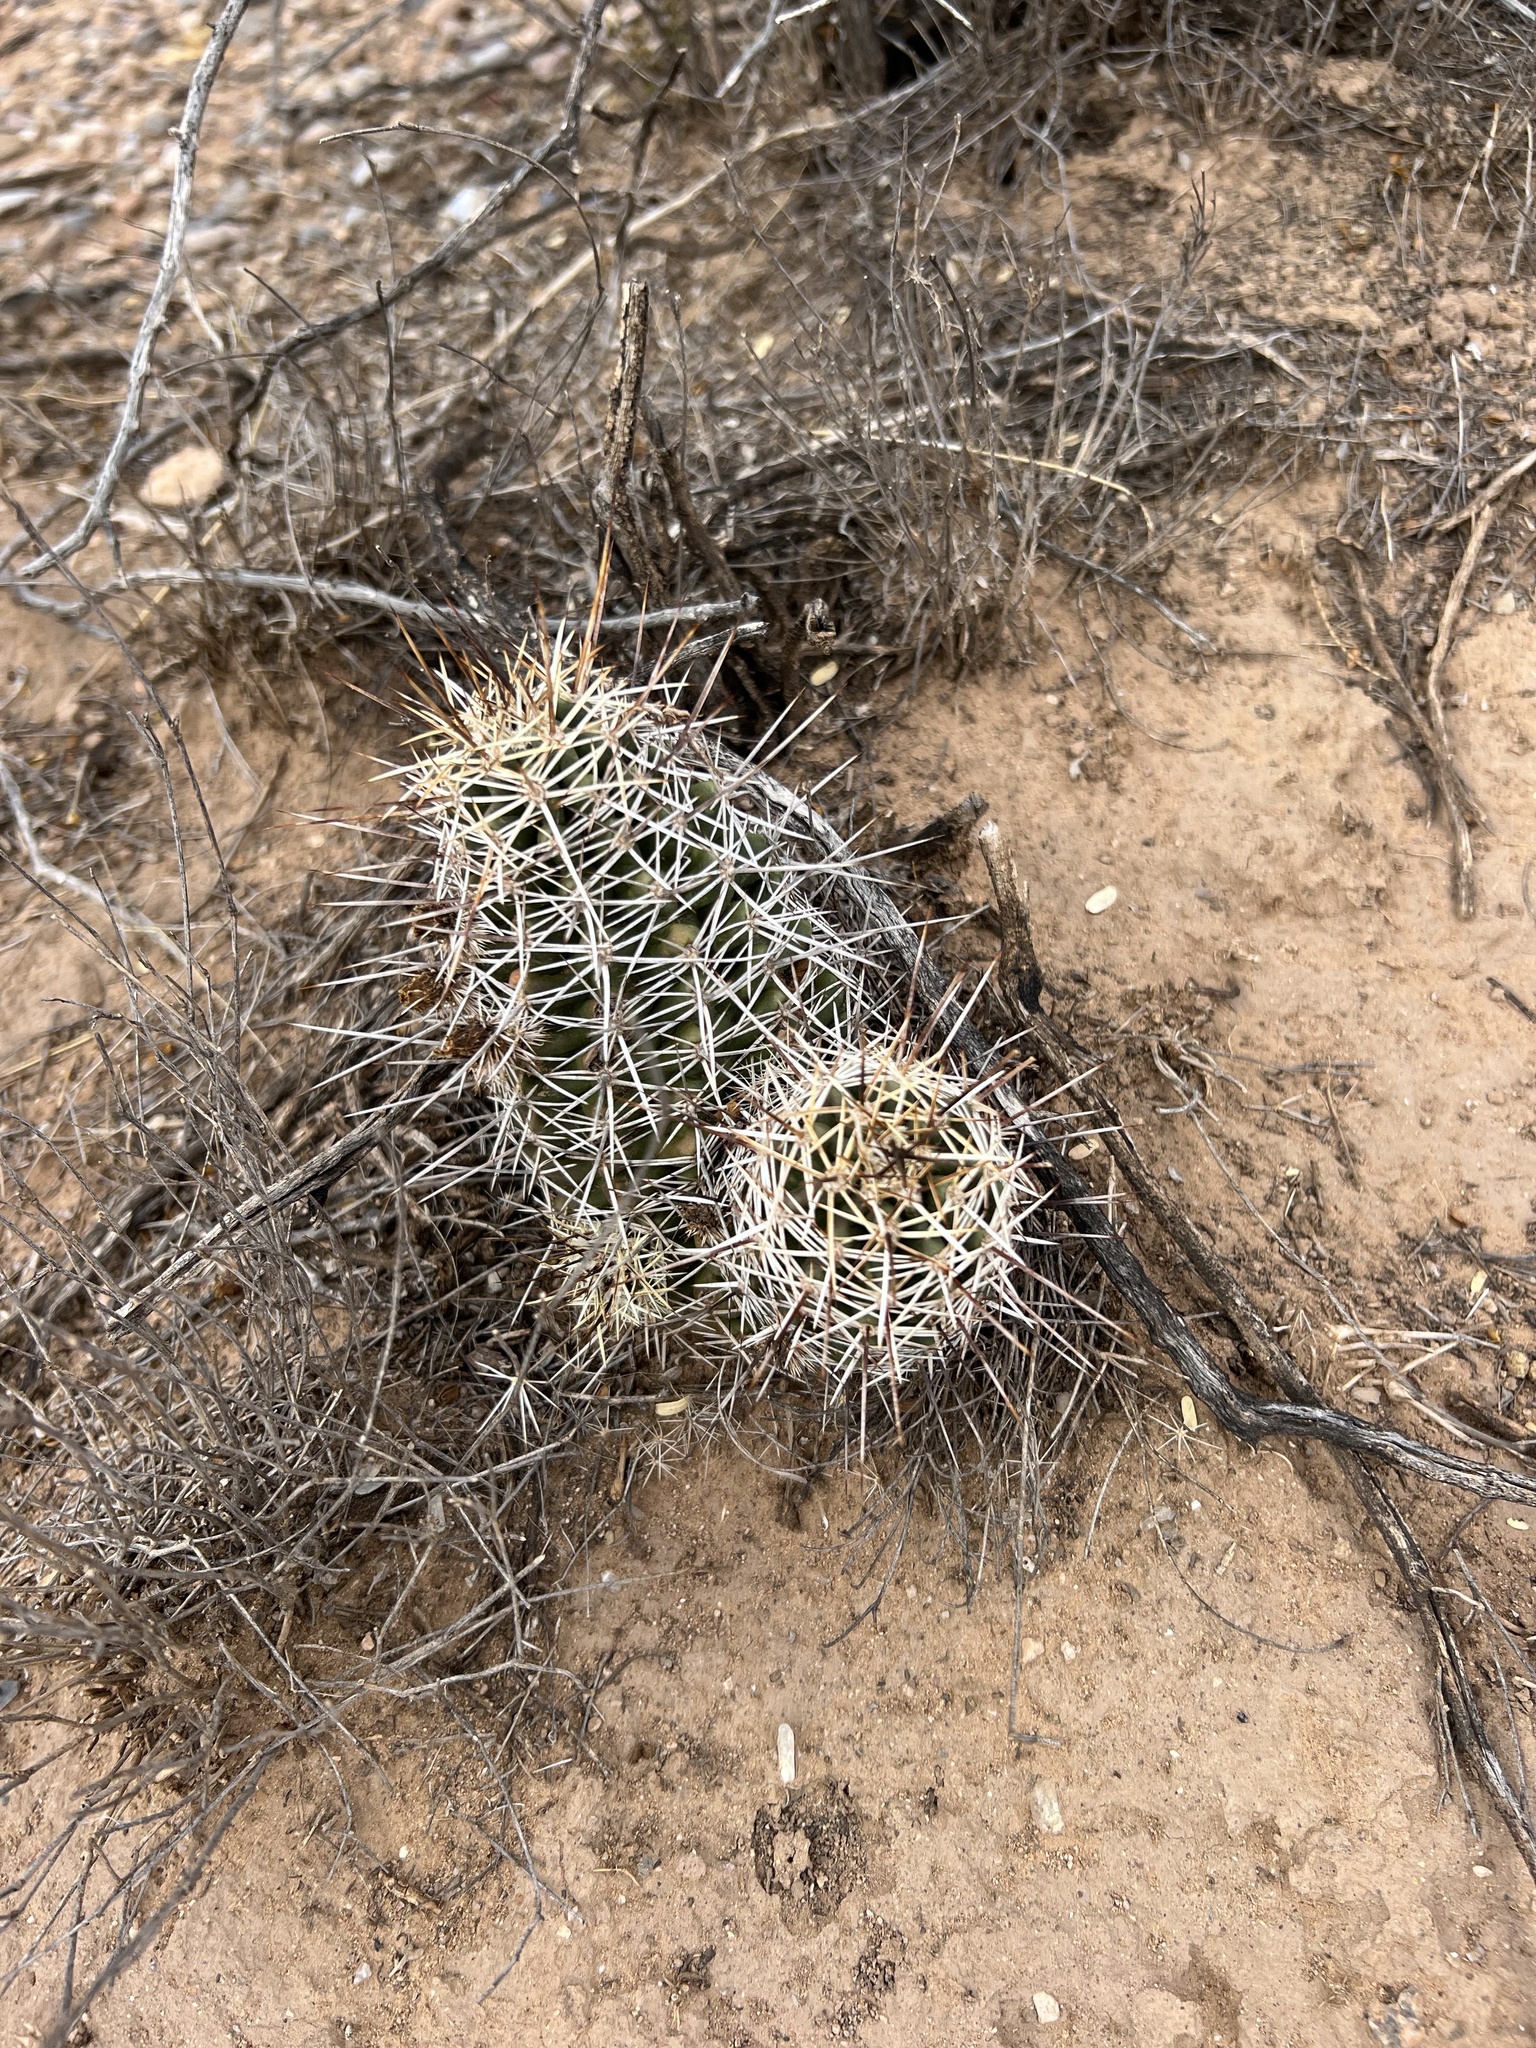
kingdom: Plantae
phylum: Tracheophyta
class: Magnoliopsida
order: Caryophyllales
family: Cactaceae
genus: Echinocereus
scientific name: Echinocereus fasciculatus
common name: Bundle hedgehog
